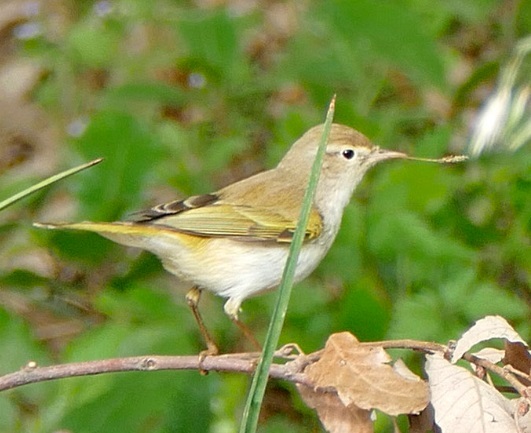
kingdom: Animalia
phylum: Chordata
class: Aves
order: Passeriformes
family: Phylloscopidae
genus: Phylloscopus
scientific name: Phylloscopus bonelli
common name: Western bonelli's warbler
